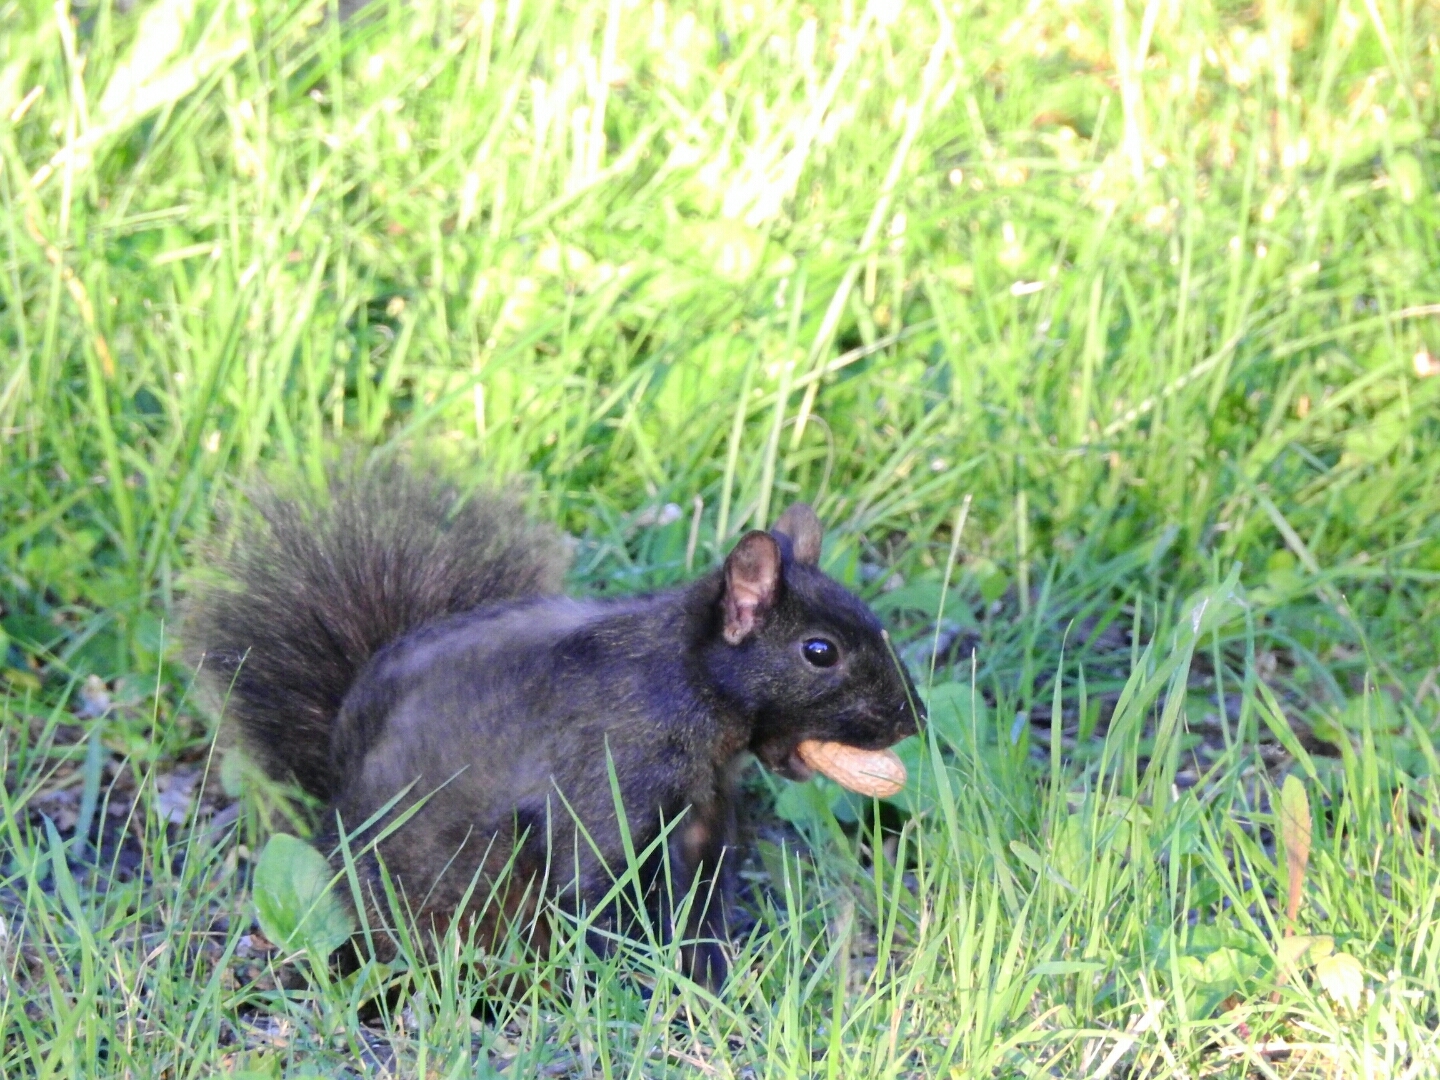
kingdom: Animalia
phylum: Chordata
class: Mammalia
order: Rodentia
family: Sciuridae
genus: Sciurus
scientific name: Sciurus carolinensis
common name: Eastern gray squirrel
